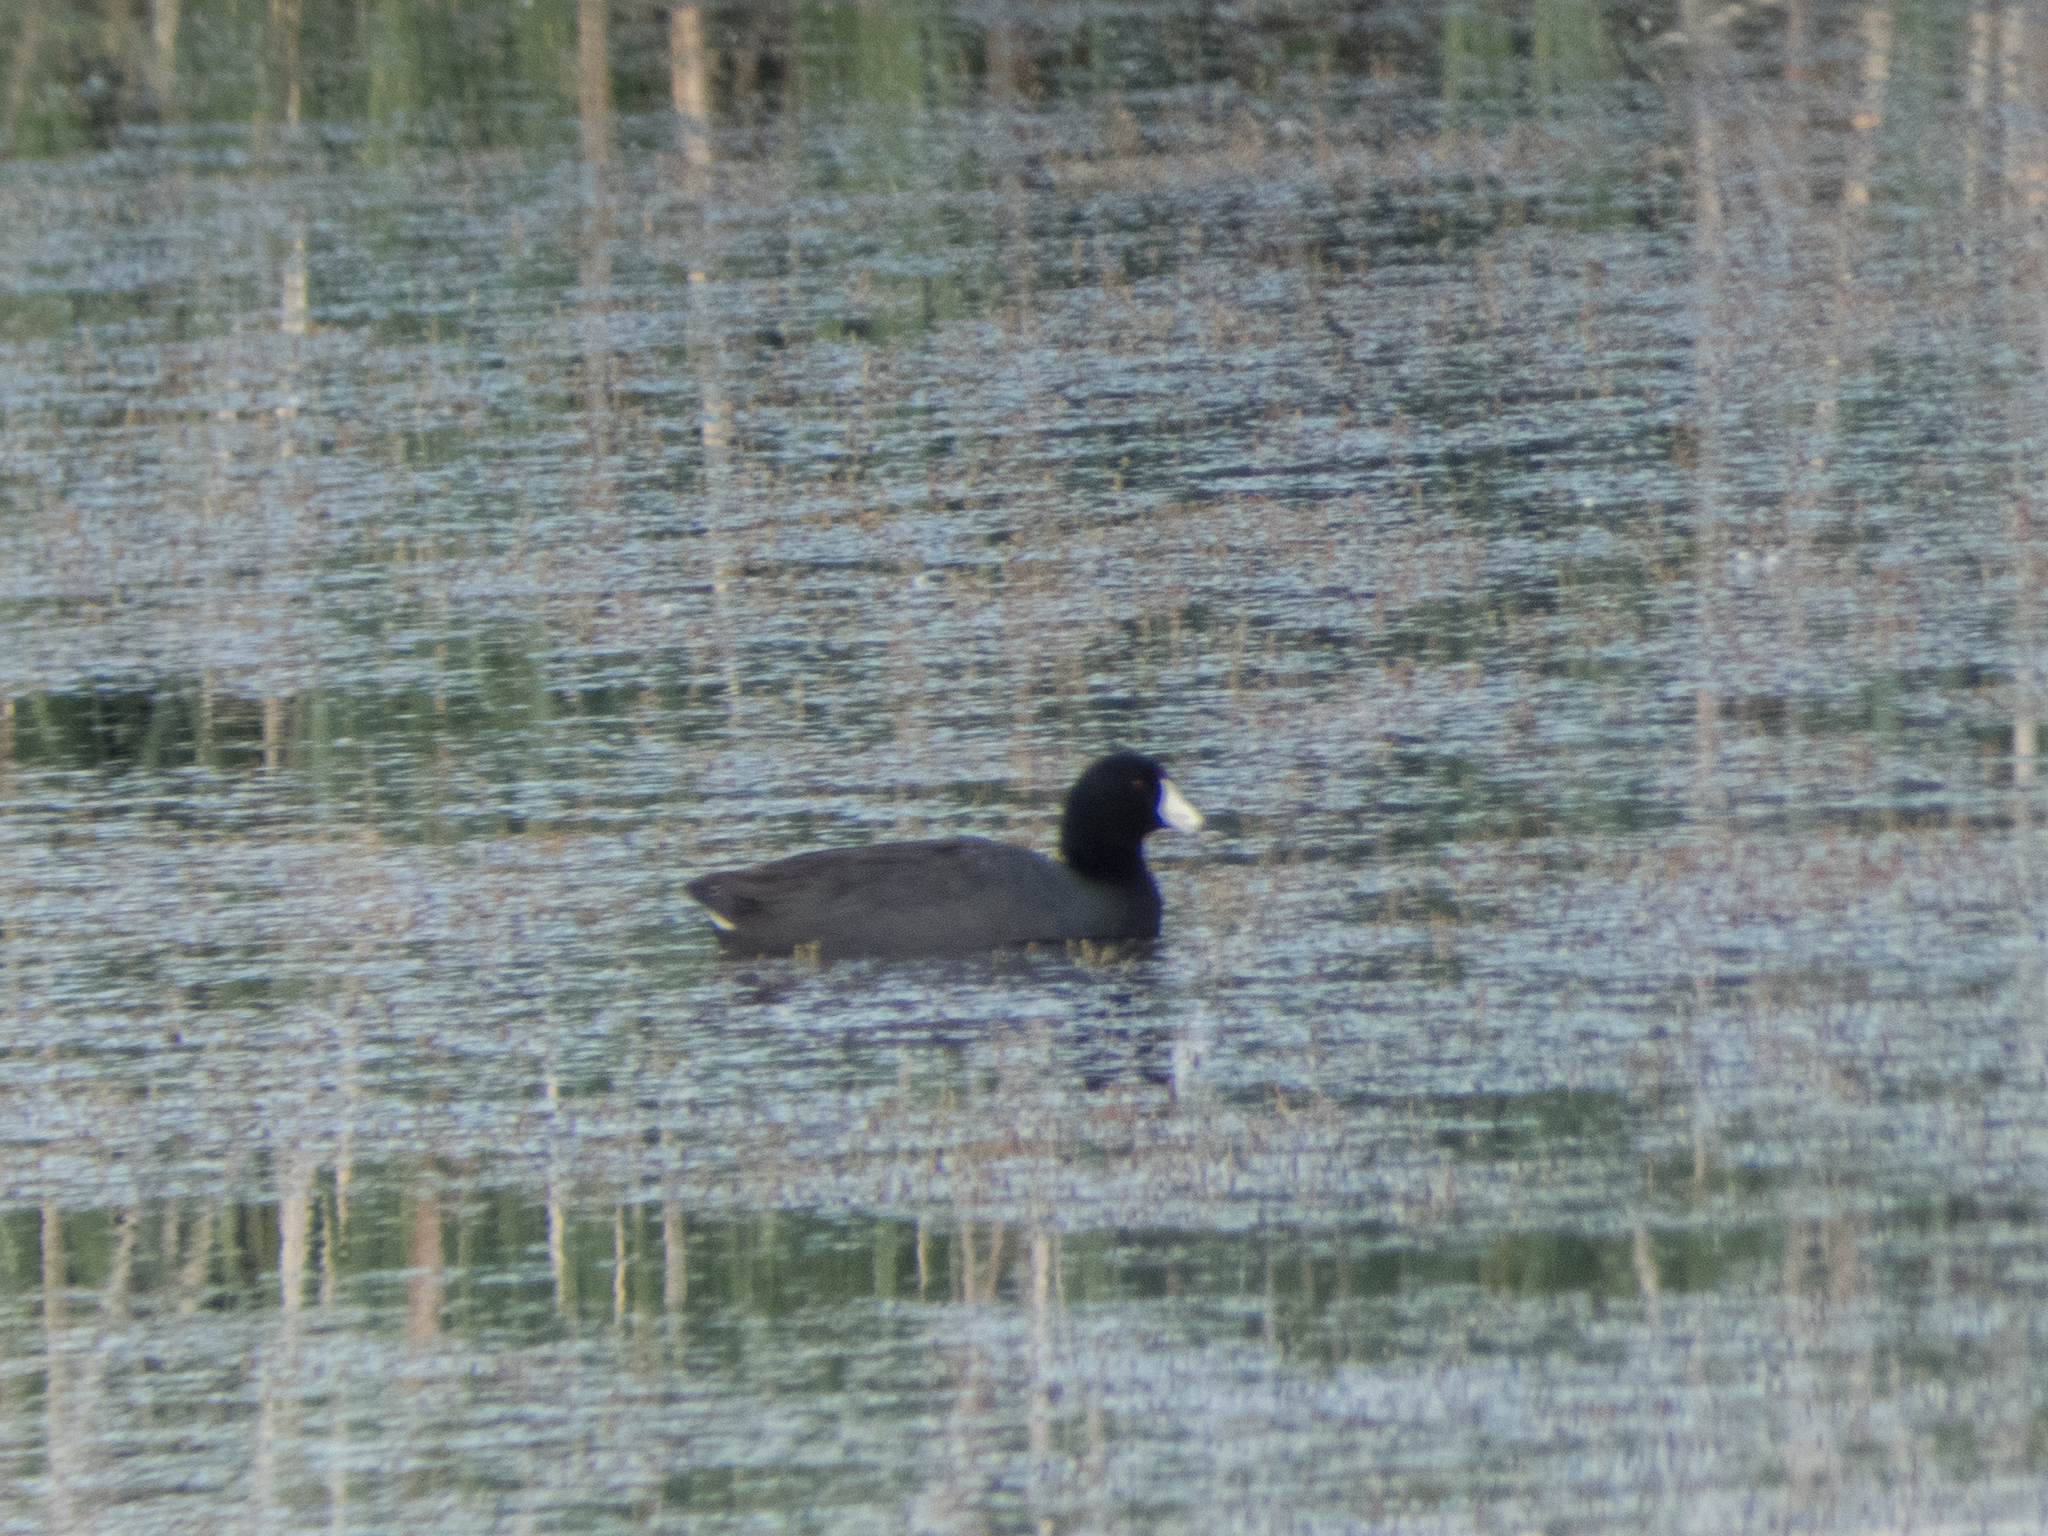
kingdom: Animalia
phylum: Chordata
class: Aves
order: Gruiformes
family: Rallidae
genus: Fulica
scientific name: Fulica americana
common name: American coot
